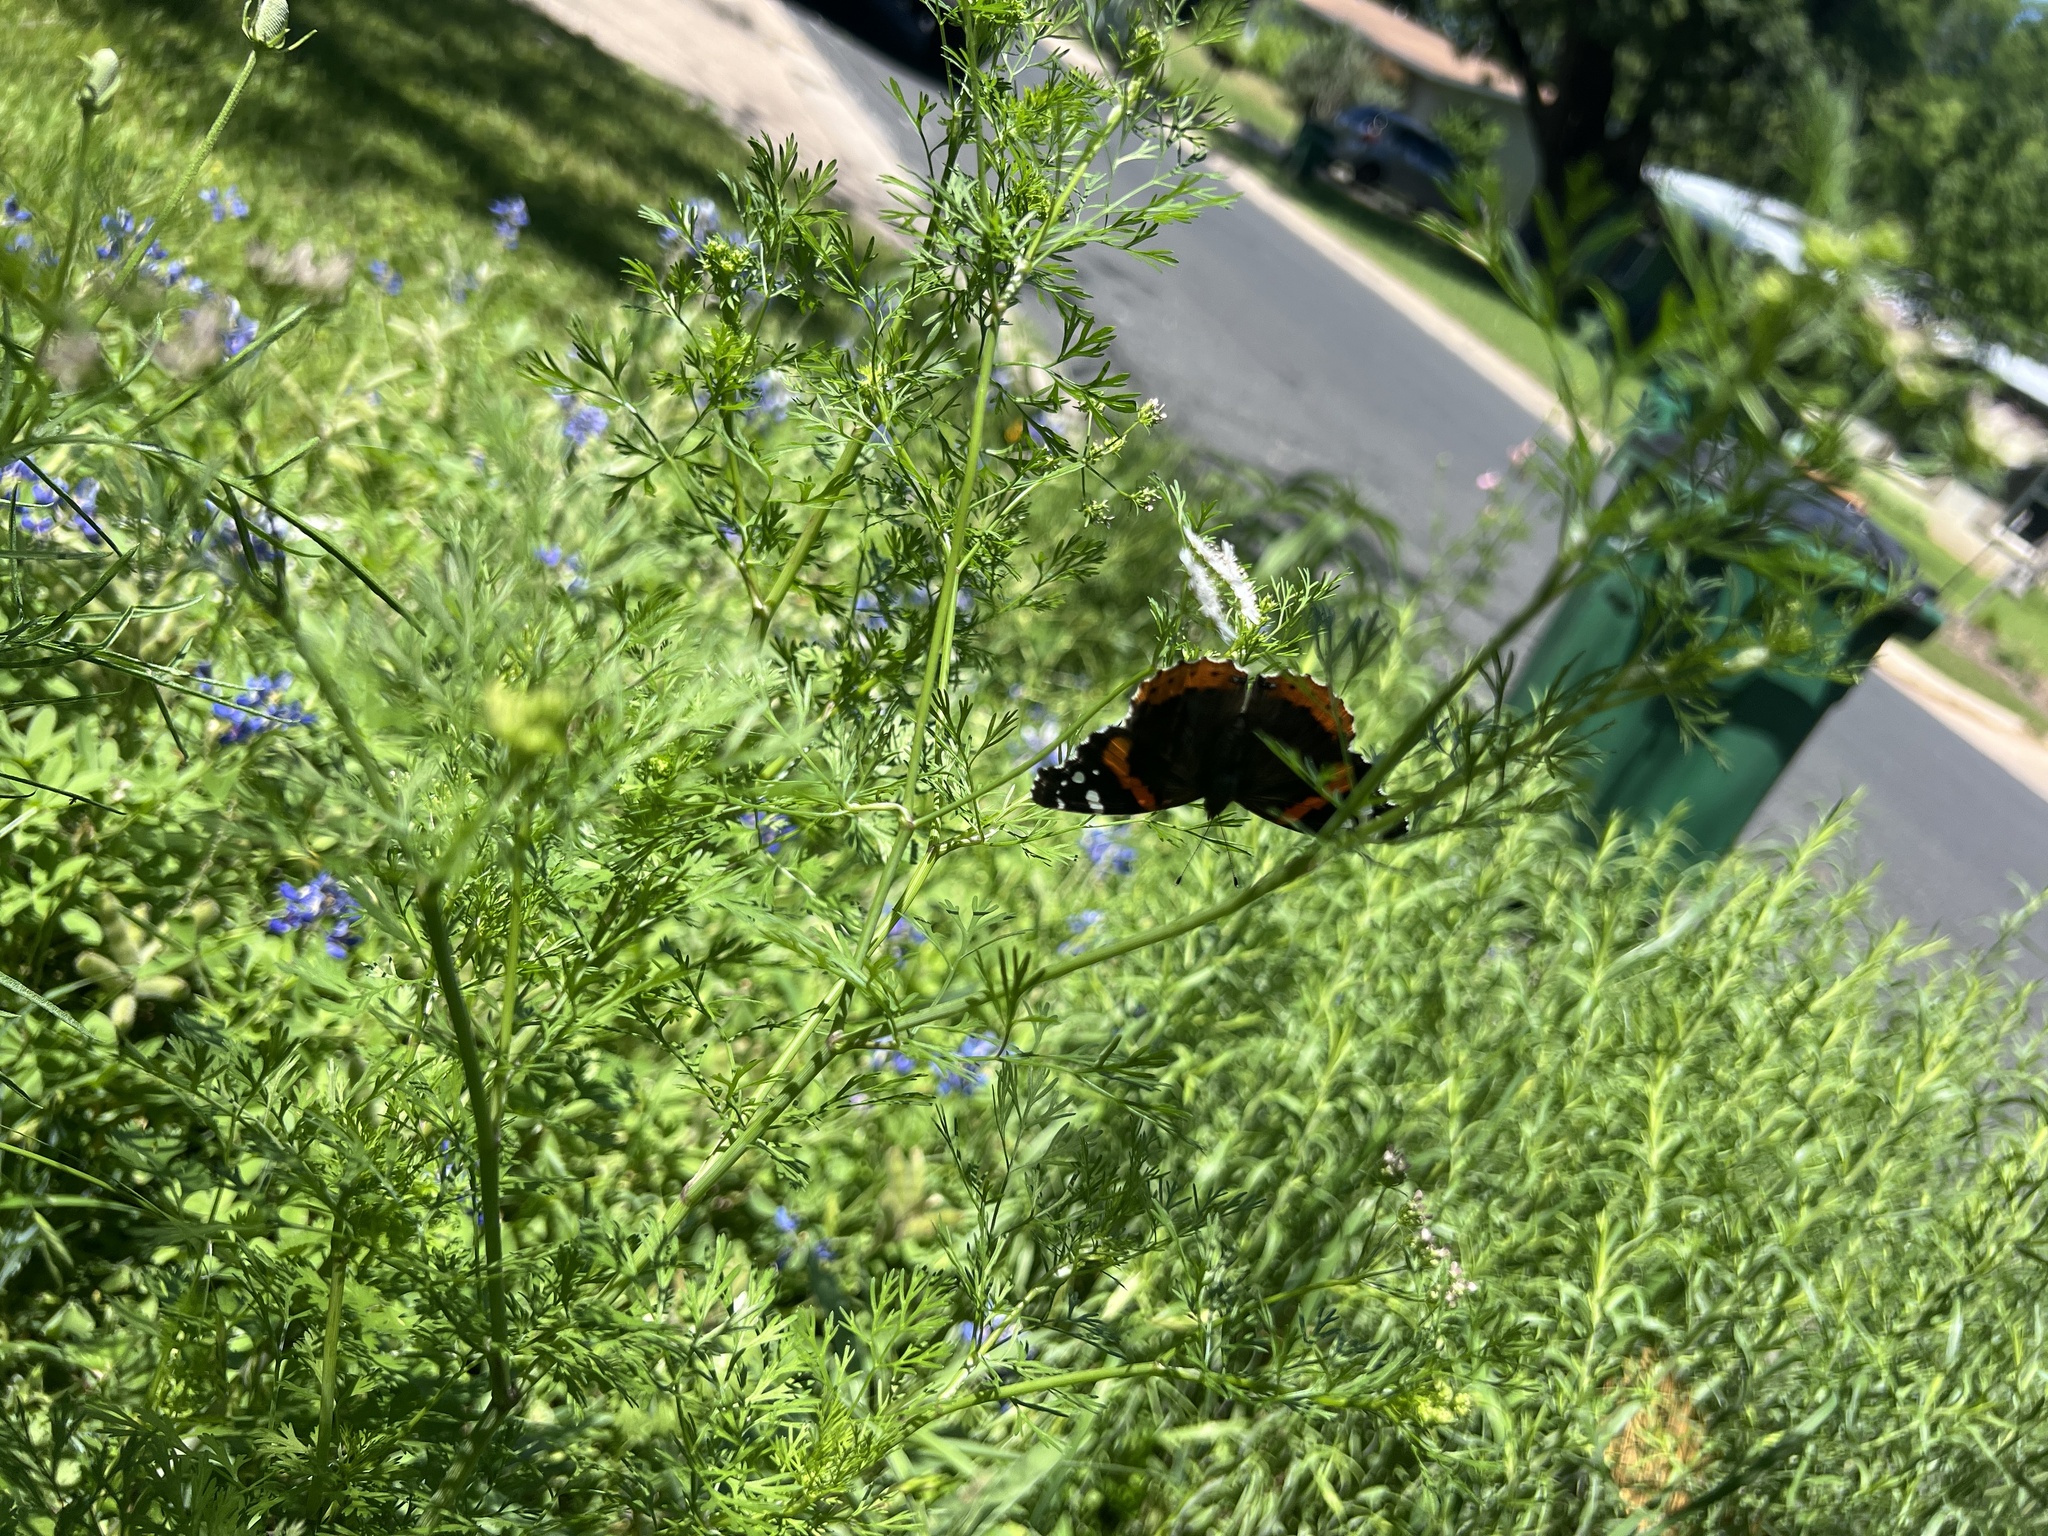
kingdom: Animalia
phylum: Arthropoda
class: Insecta
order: Lepidoptera
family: Nymphalidae
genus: Vanessa
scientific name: Vanessa atalanta
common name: Red admiral
